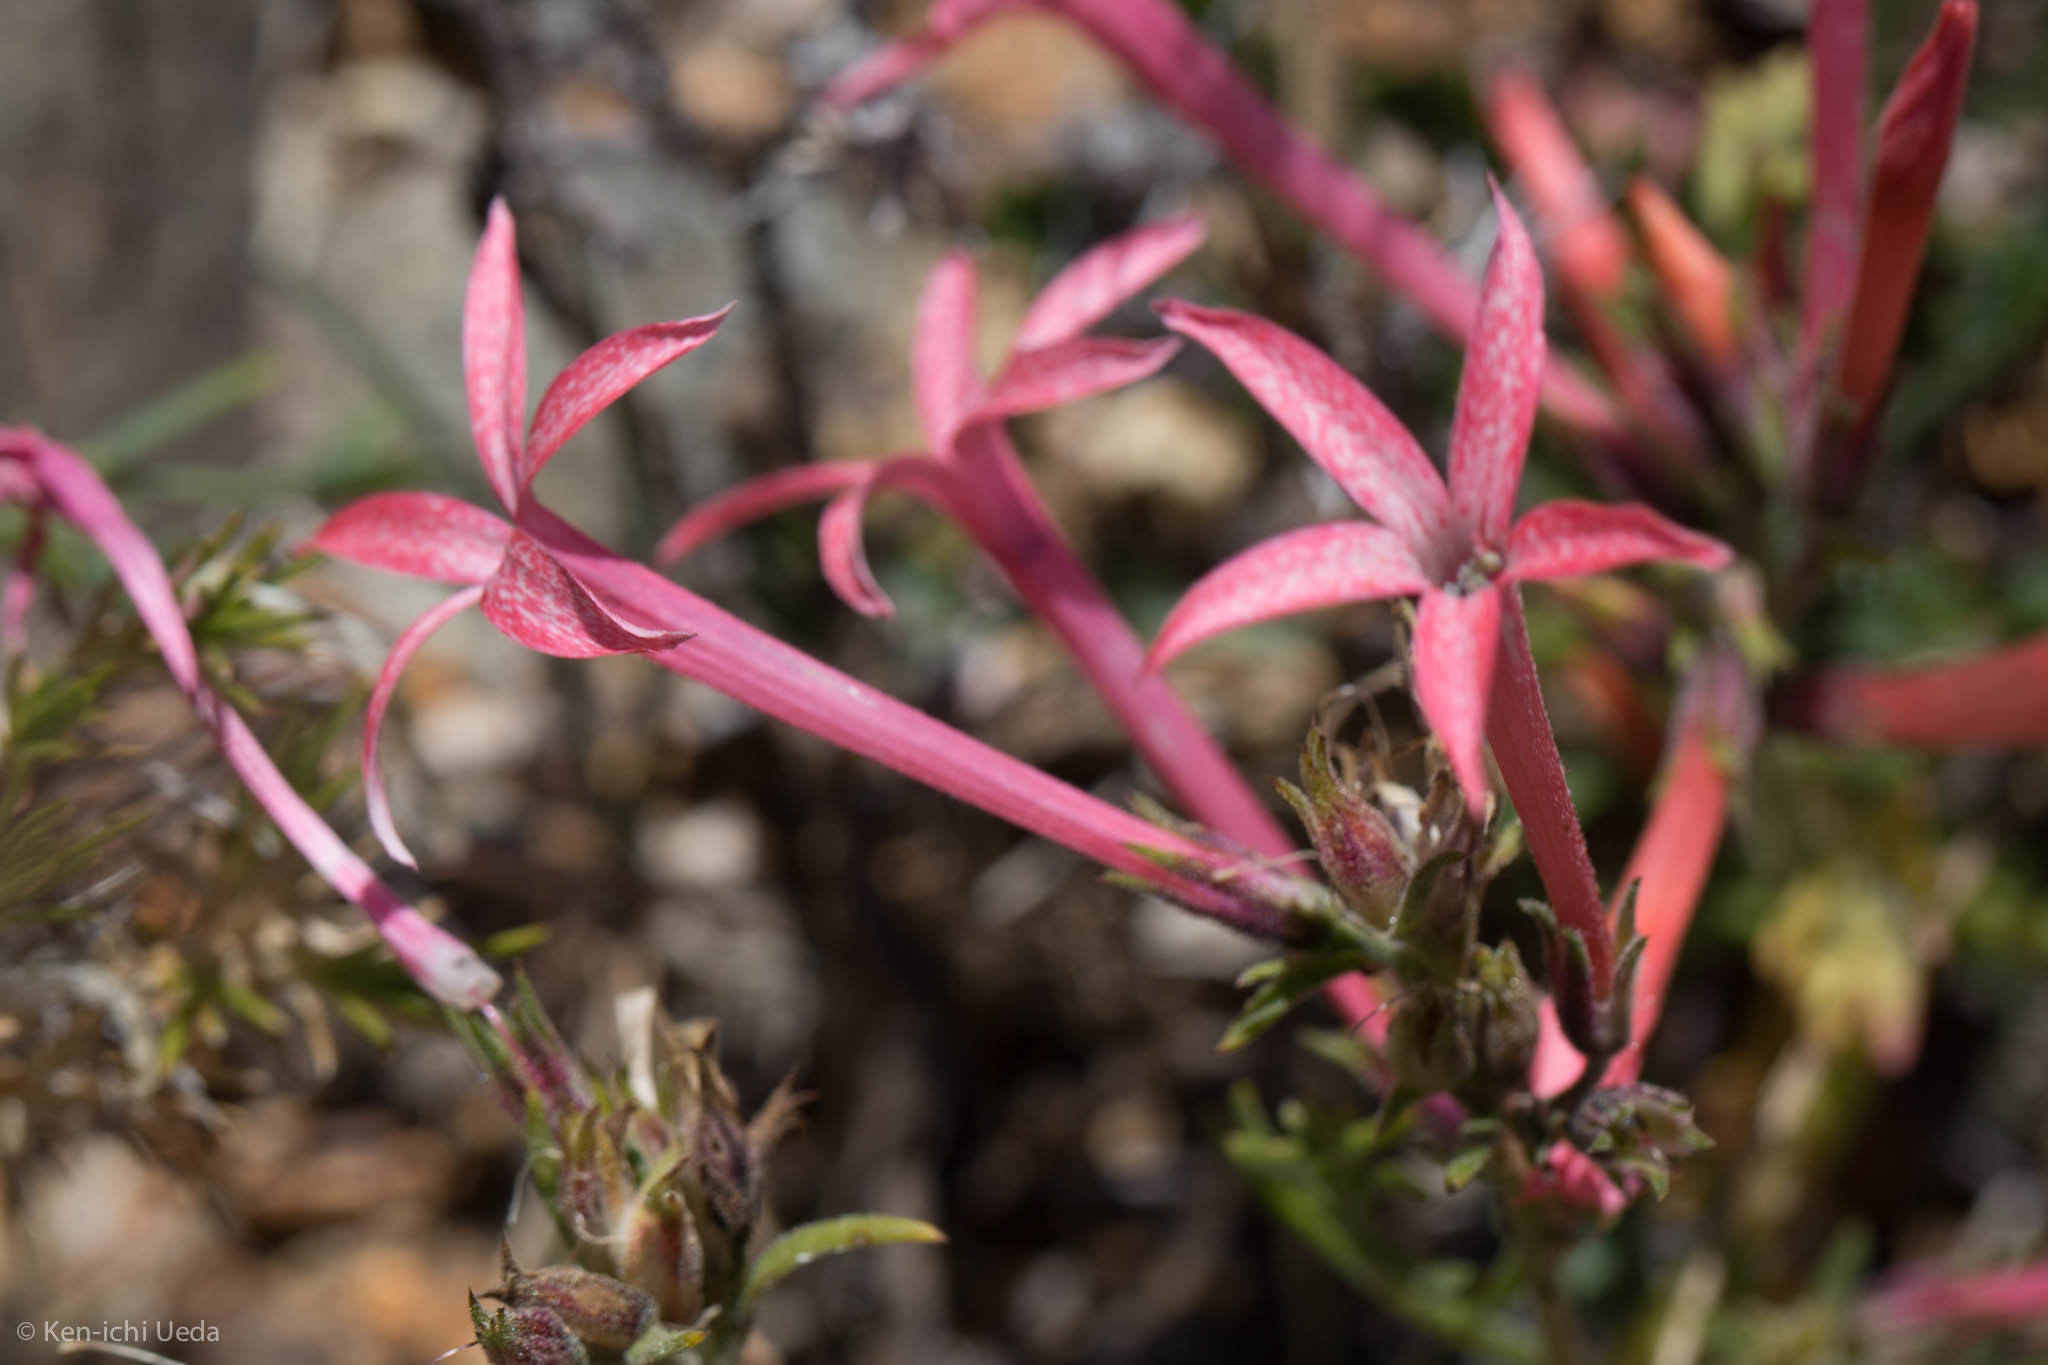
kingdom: Plantae
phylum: Tracheophyta
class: Magnoliopsida
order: Ericales
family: Polemoniaceae
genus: Ipomopsis
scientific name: Ipomopsis tenuituba
